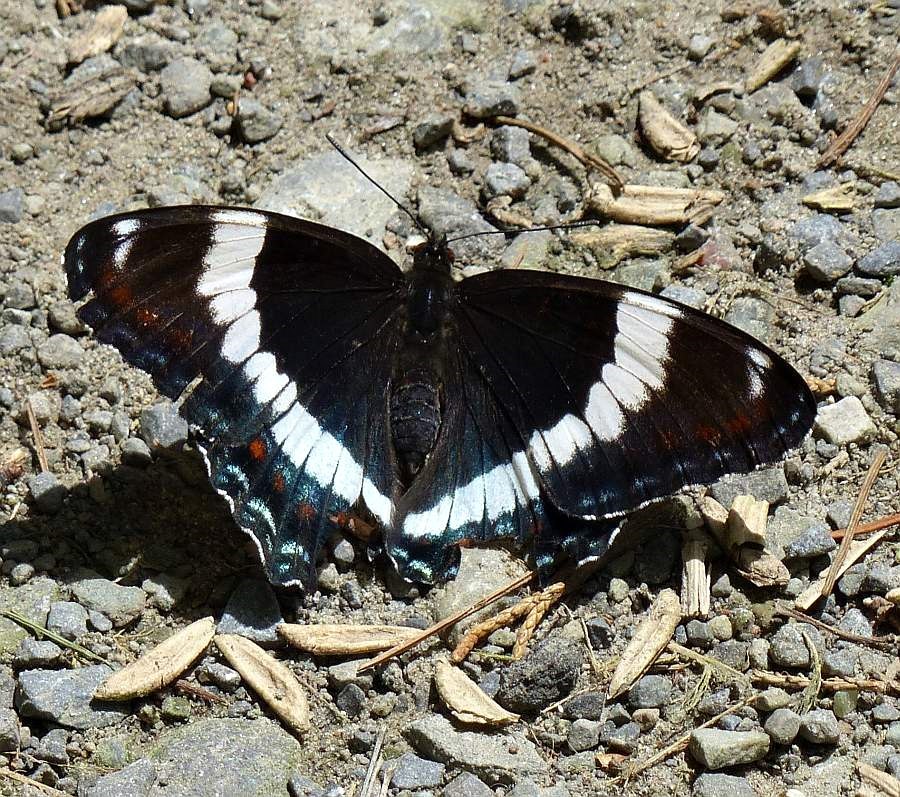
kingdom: Animalia
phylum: Arthropoda
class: Insecta
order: Lepidoptera
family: Nymphalidae
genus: Limenitis
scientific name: Limenitis arthemis
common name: Red-spotted admiral
